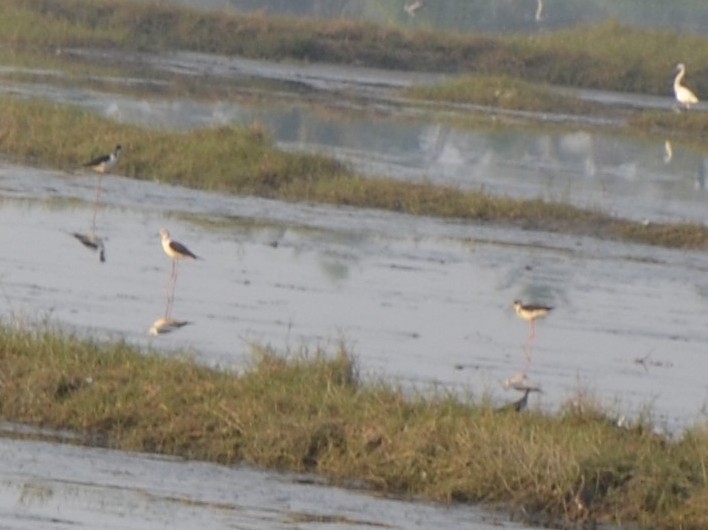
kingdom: Animalia
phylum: Chordata
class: Aves
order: Charadriiformes
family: Recurvirostridae
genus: Himantopus
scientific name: Himantopus himantopus
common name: Black-winged stilt
